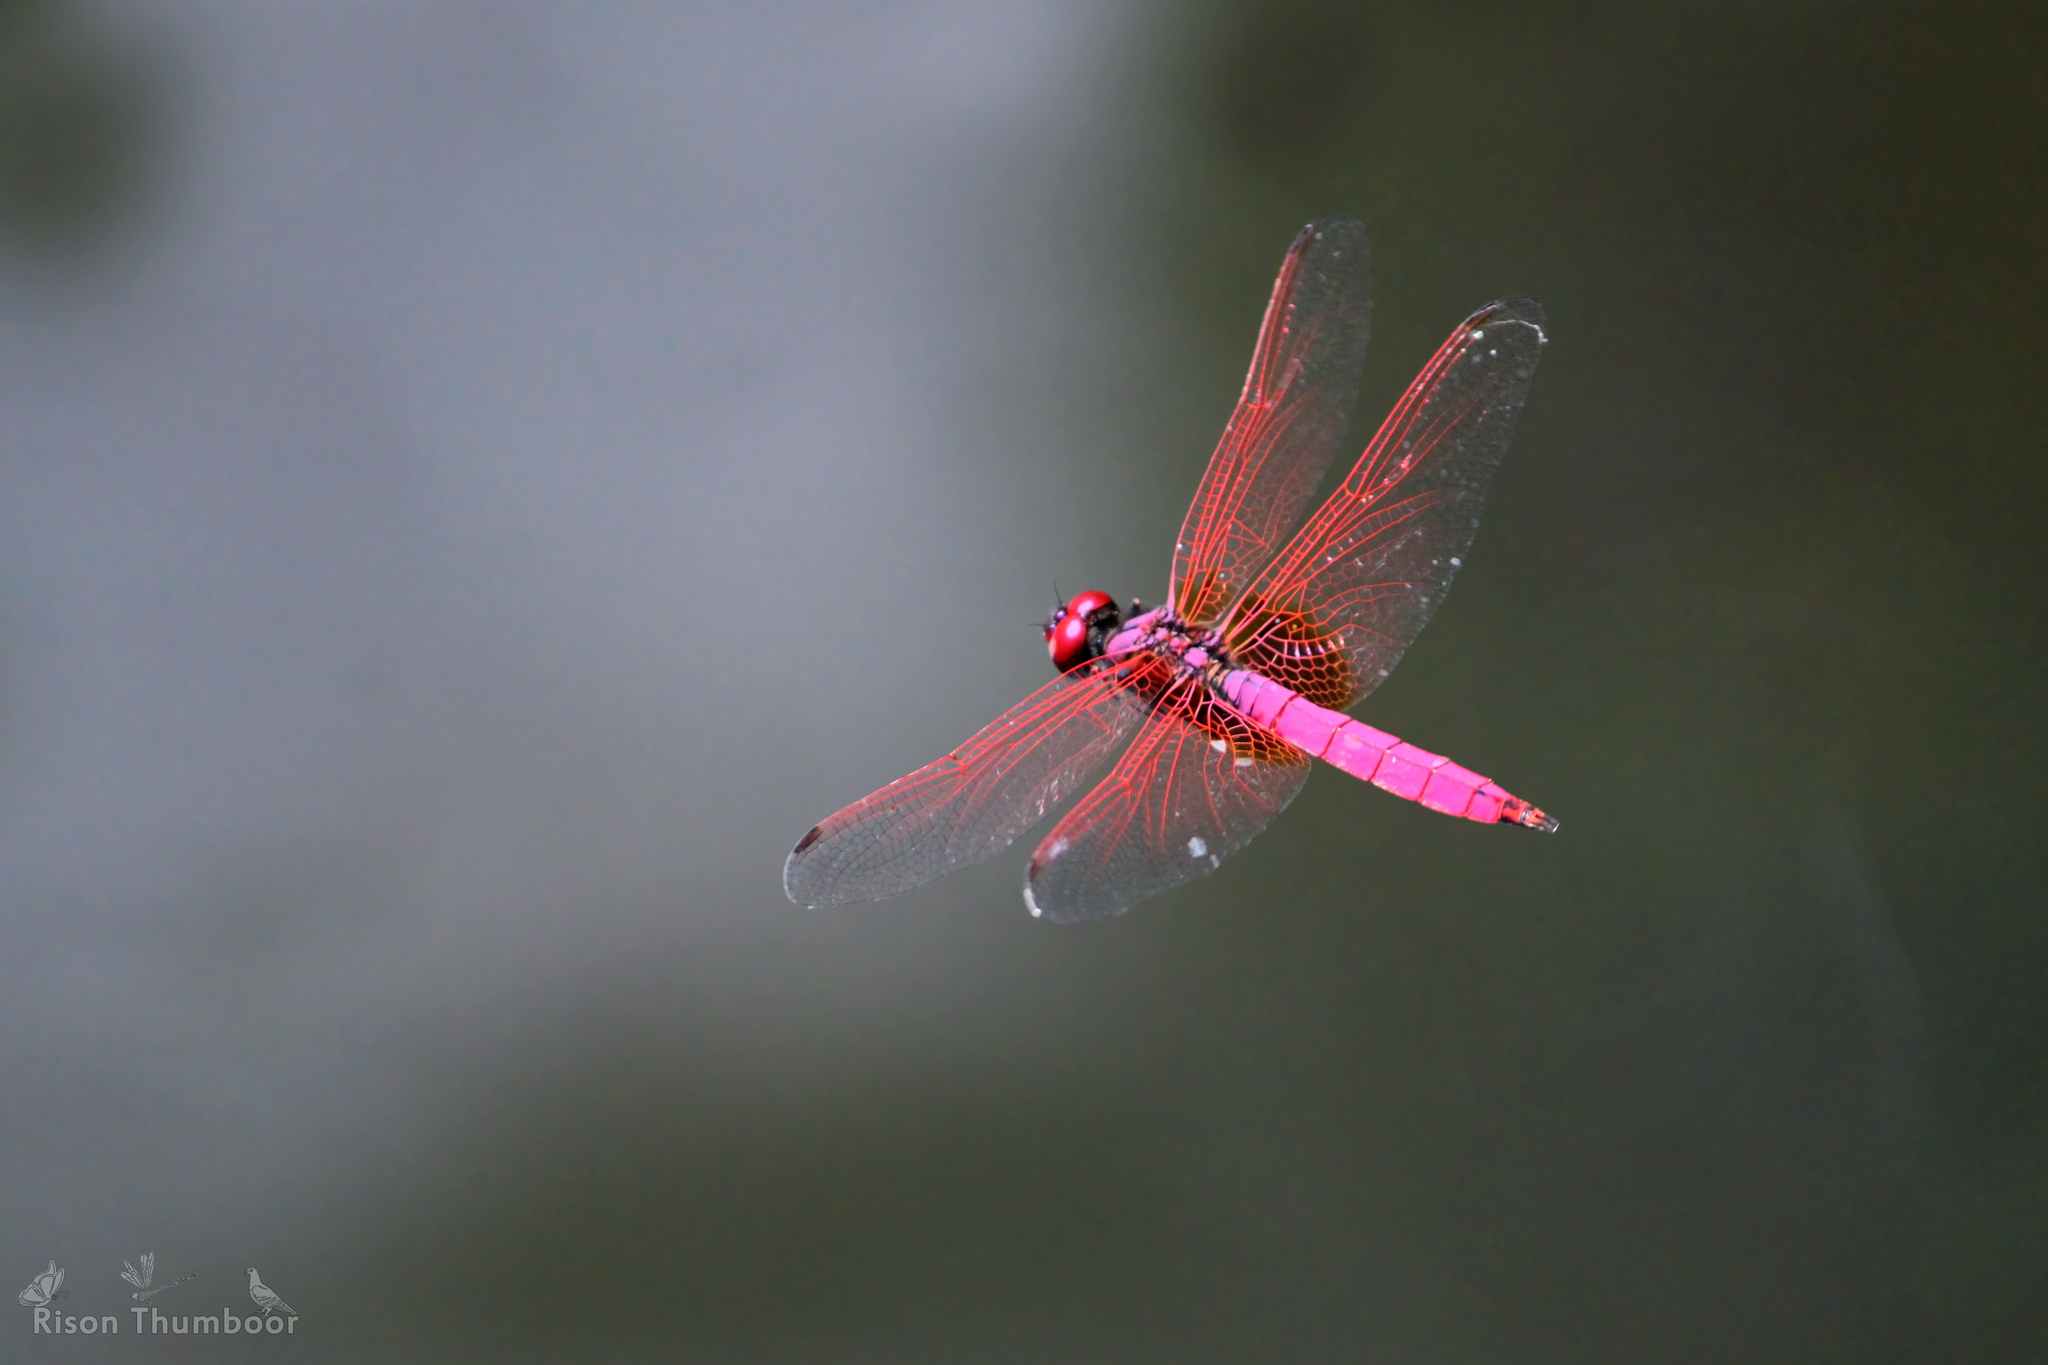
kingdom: Animalia
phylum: Arthropoda
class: Insecta
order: Odonata
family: Libellulidae
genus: Trithemis
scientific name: Trithemis aurora
